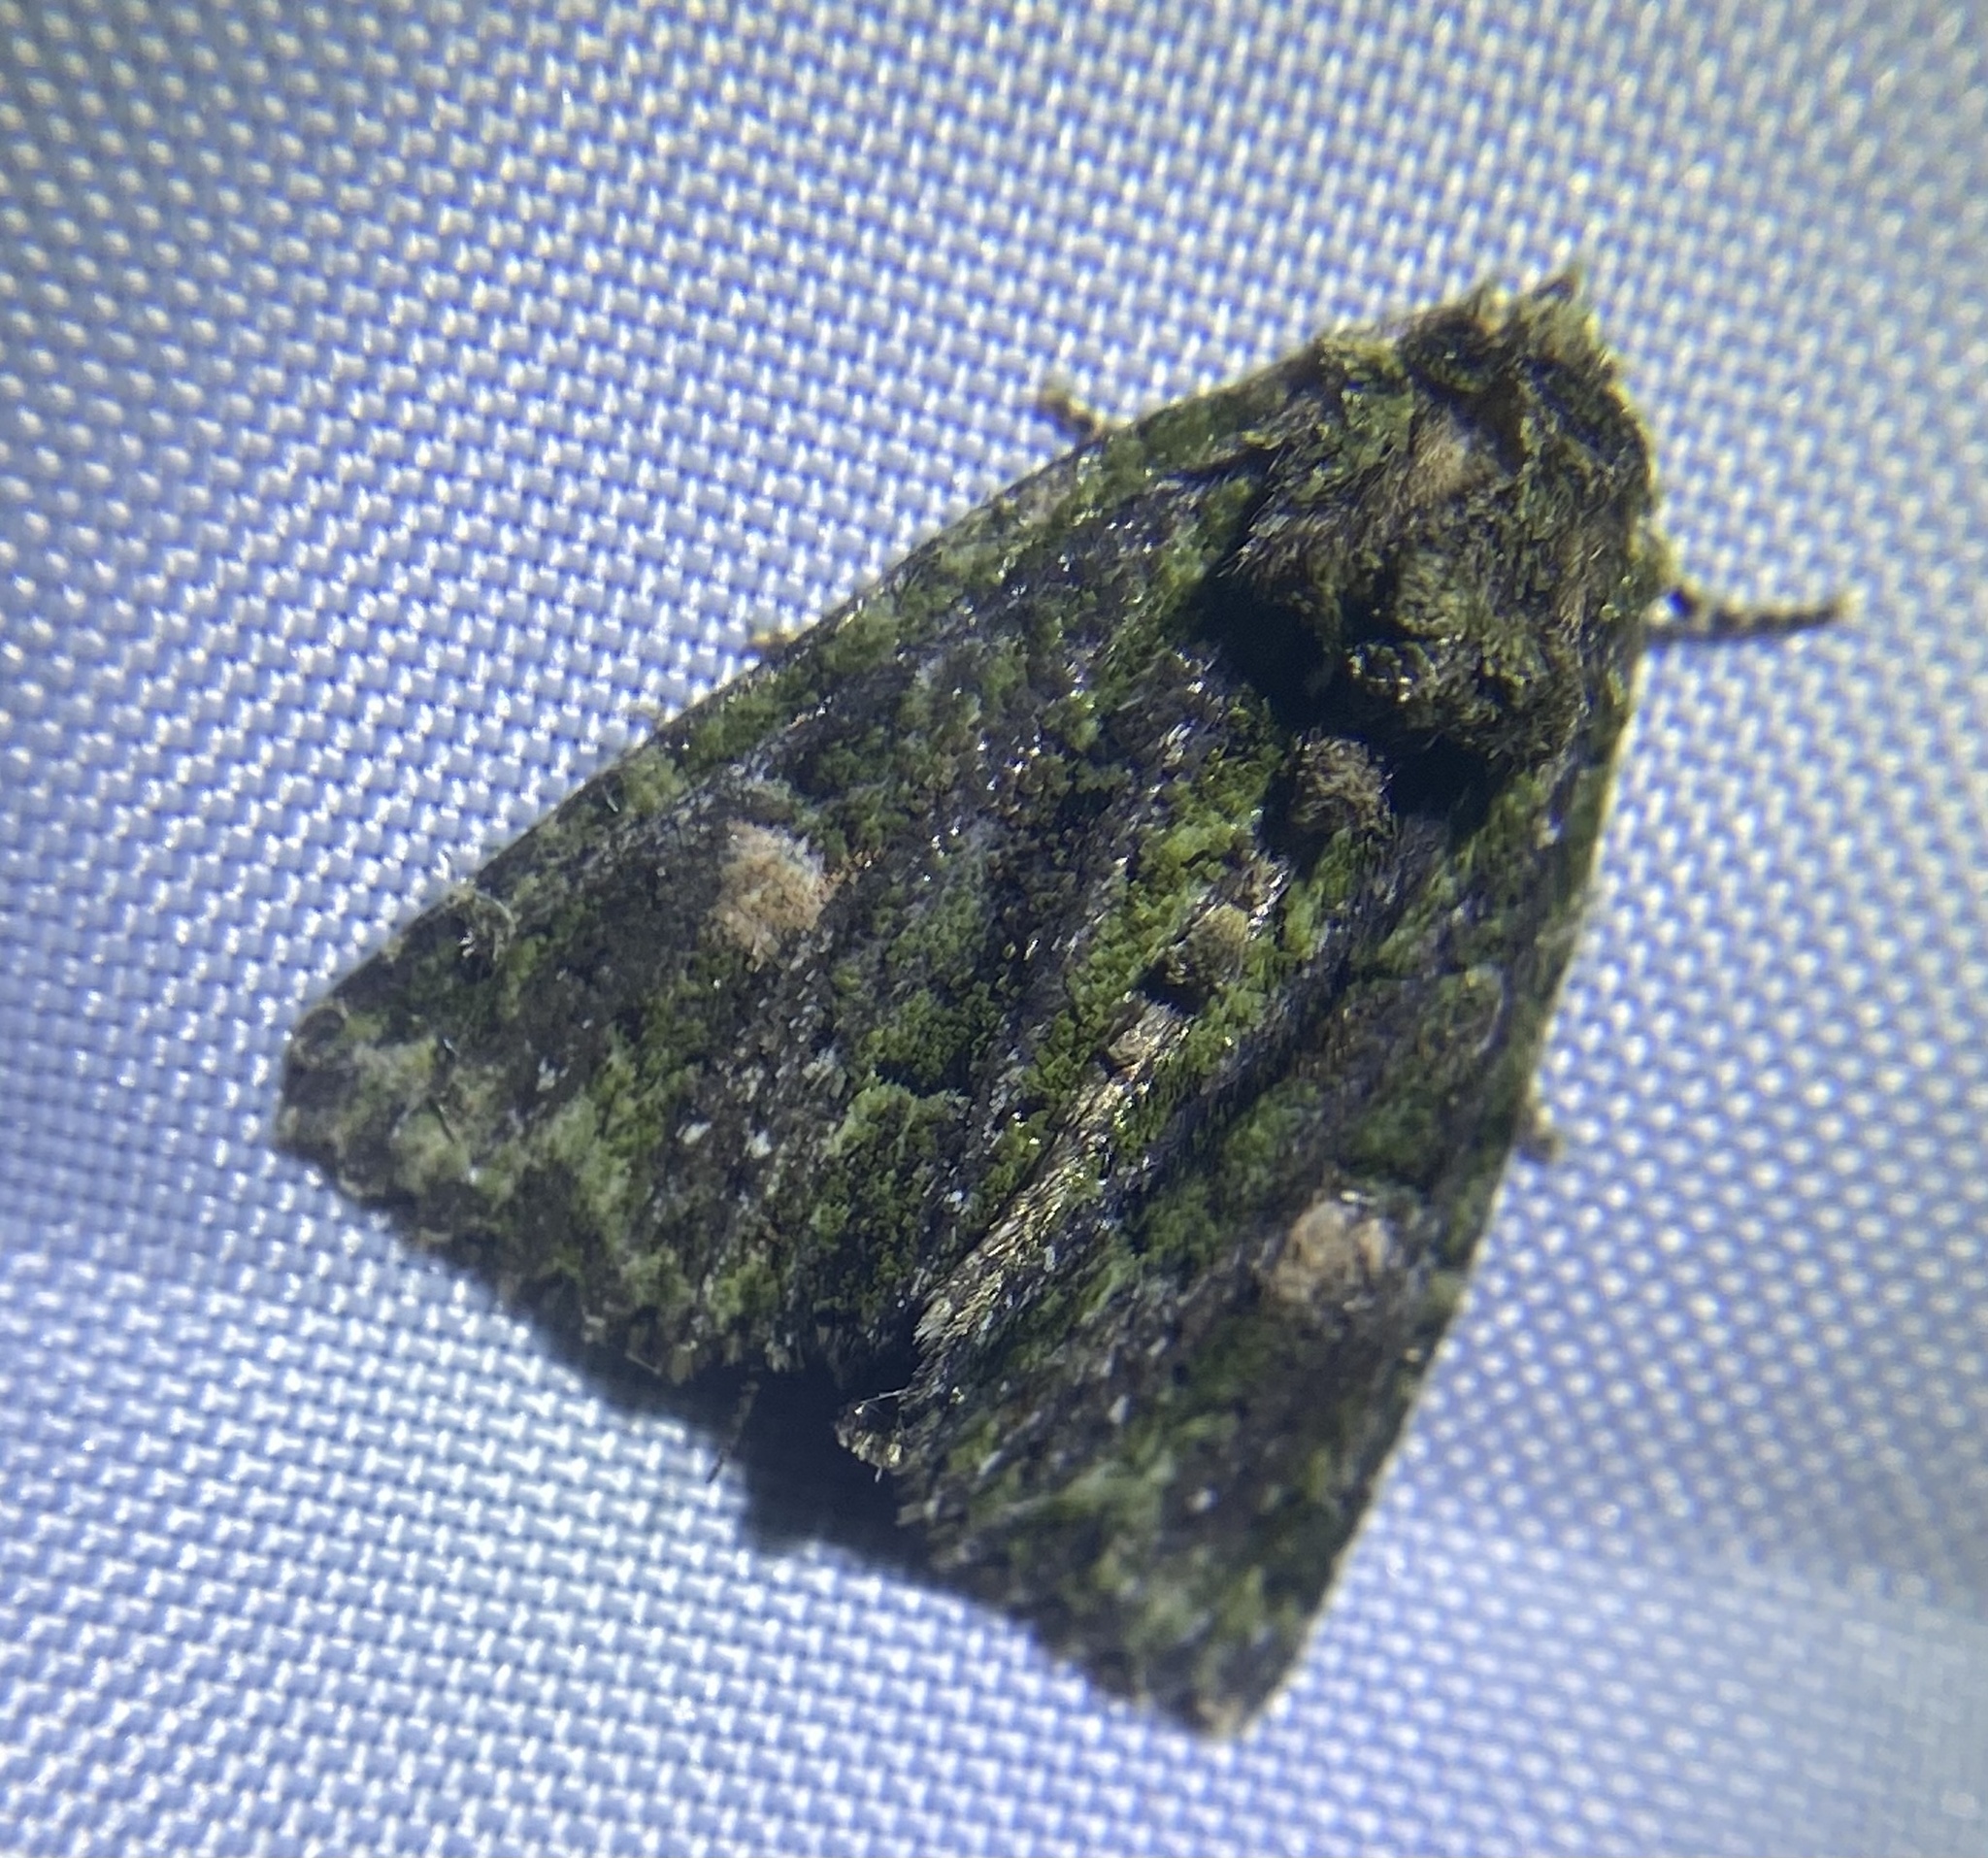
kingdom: Animalia
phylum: Arthropoda
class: Insecta
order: Lepidoptera
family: Noctuidae
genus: Phosphila
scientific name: Phosphila miselioides
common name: Spotted phosphila moth
